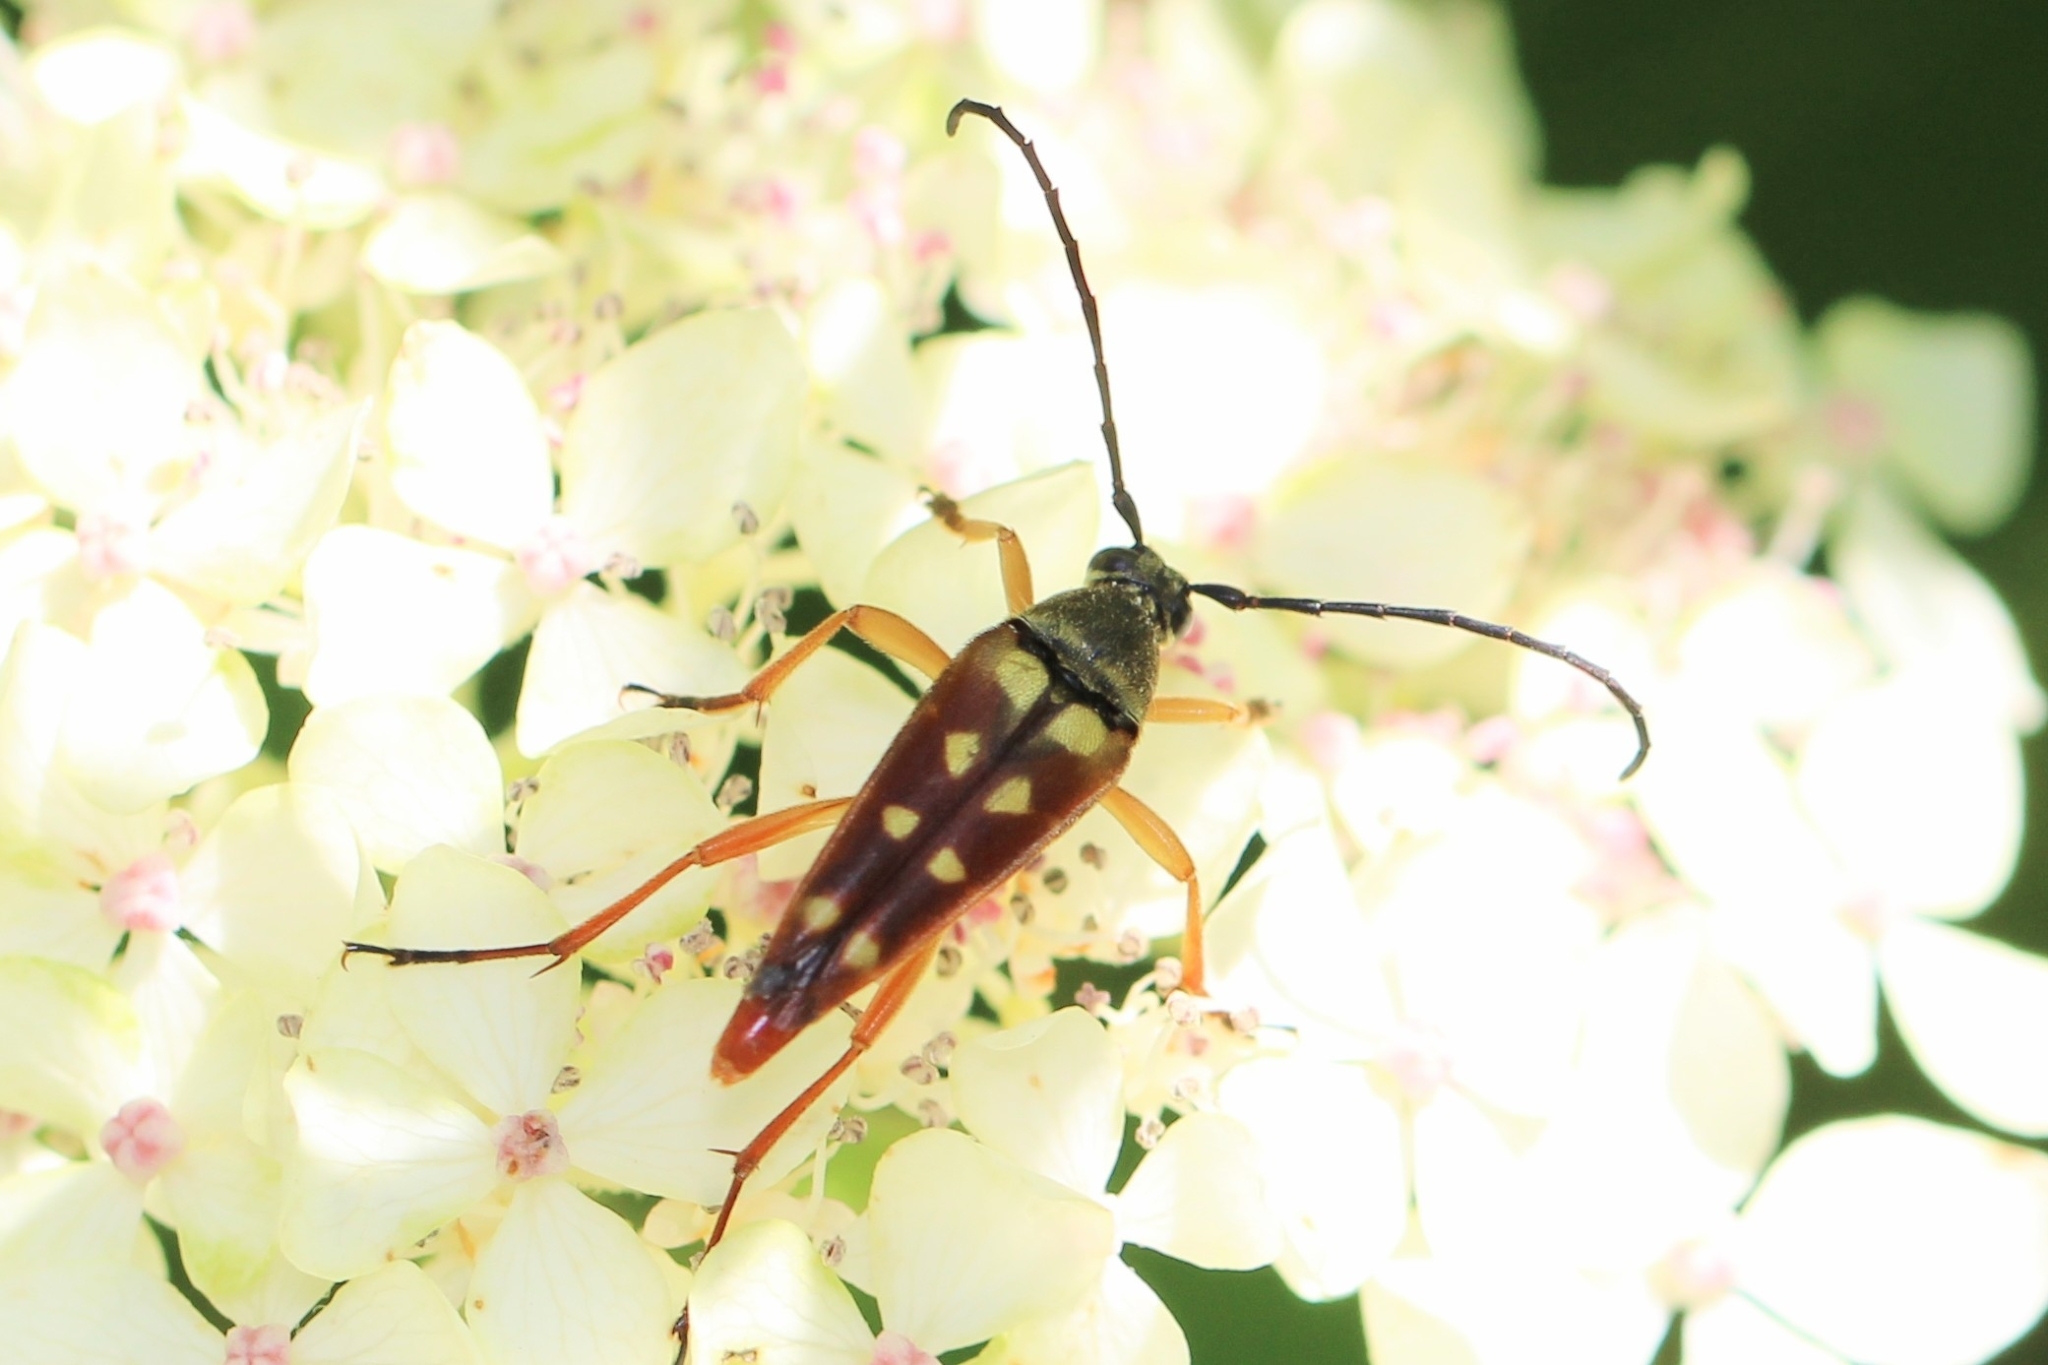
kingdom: Animalia
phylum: Arthropoda
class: Insecta
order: Coleoptera
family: Cerambycidae
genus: Typocerus
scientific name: Typocerus velutinus
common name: Banded longhorn beetle
